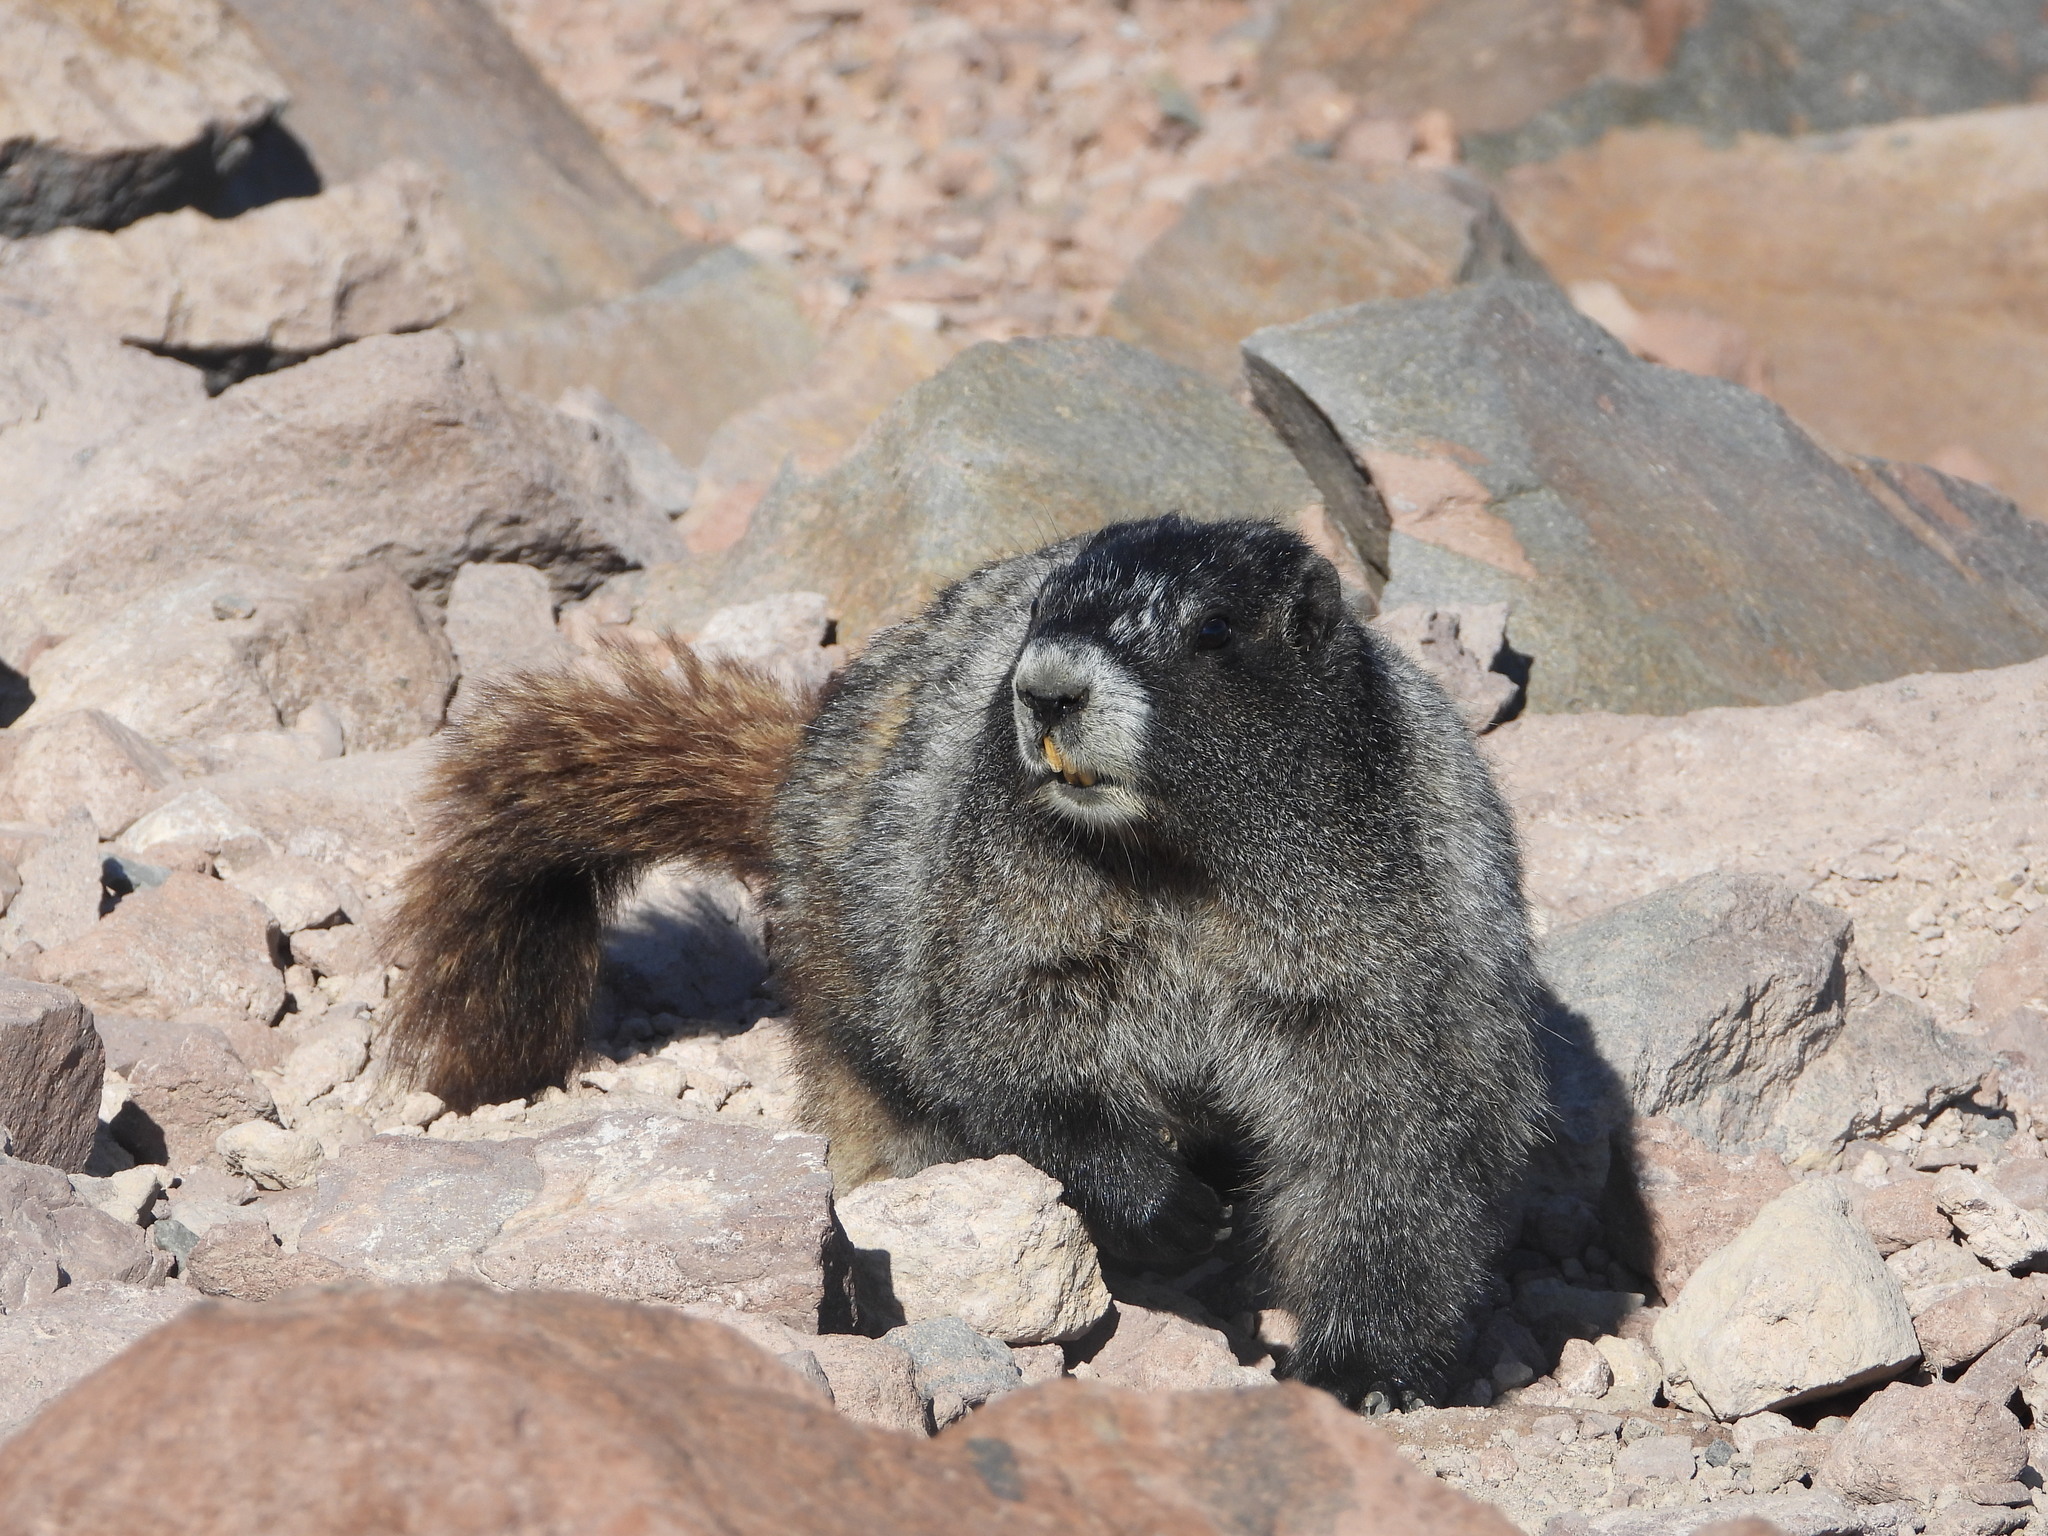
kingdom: Animalia
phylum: Chordata
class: Mammalia
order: Rodentia
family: Sciuridae
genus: Marmota
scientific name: Marmota caligata
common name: Hoary marmot
